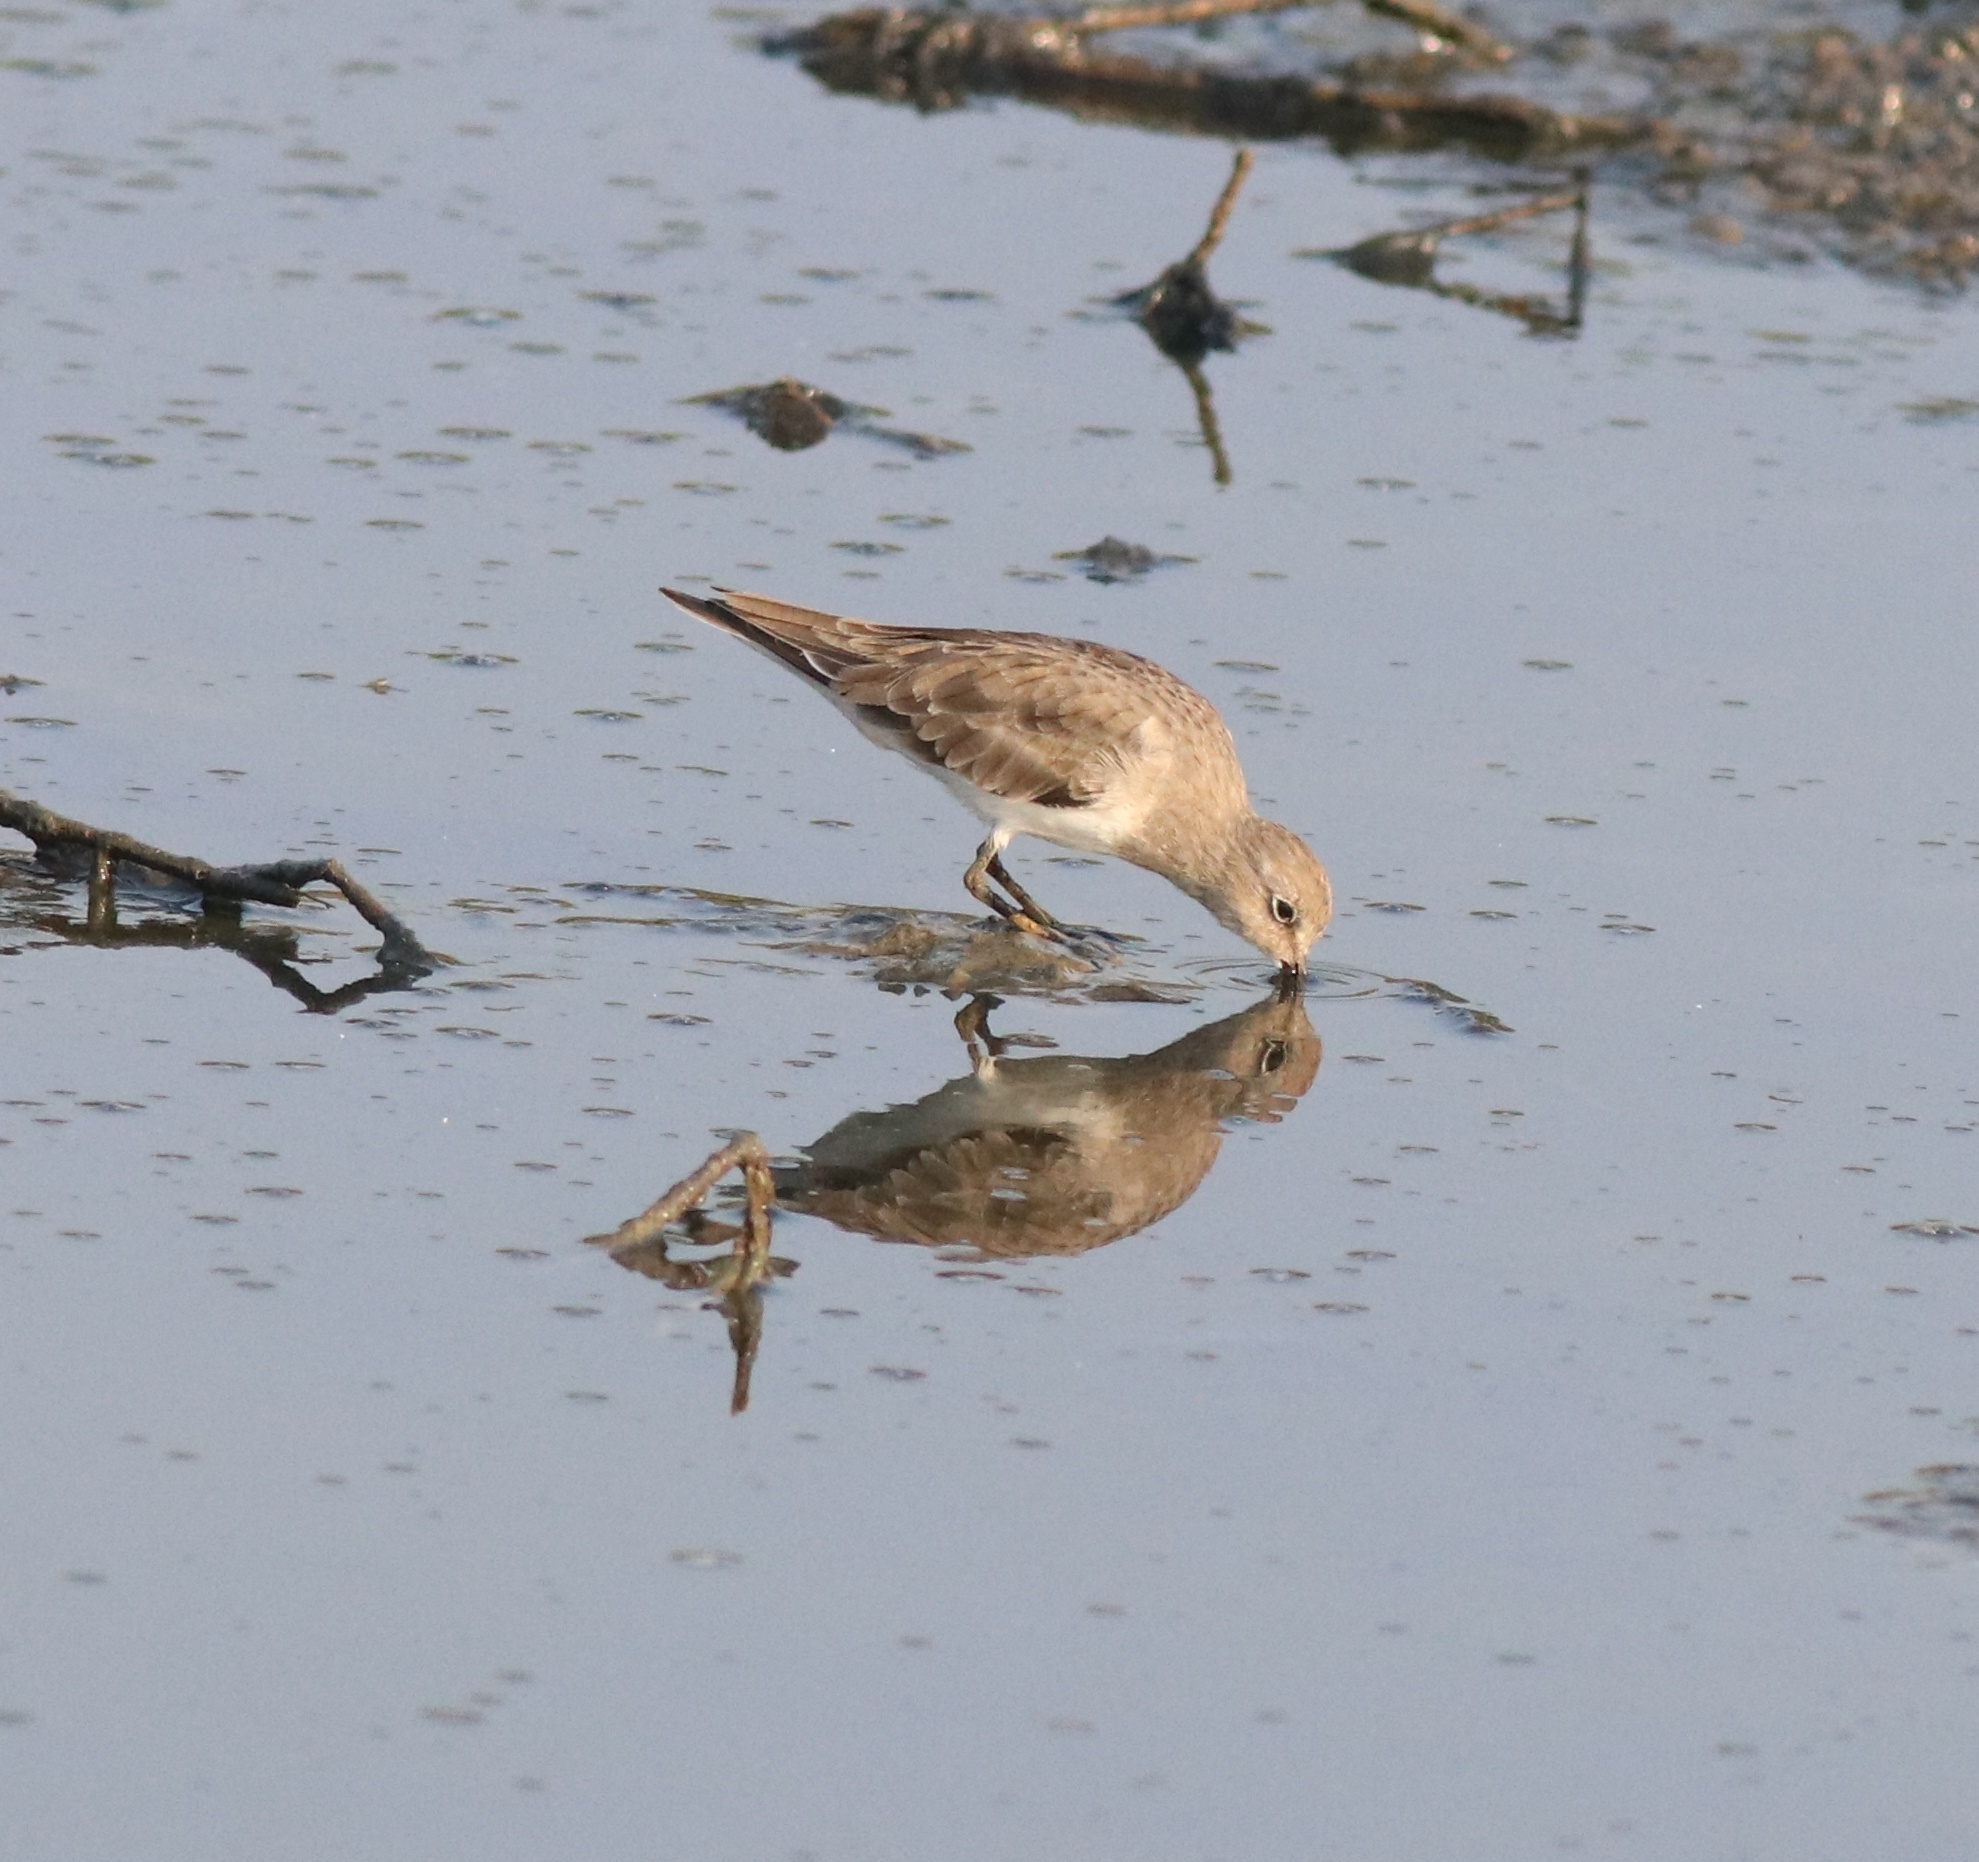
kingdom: Animalia
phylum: Chordata
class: Aves
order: Charadriiformes
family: Scolopacidae
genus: Calidris
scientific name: Calidris temminckii
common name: Temminck's stint
